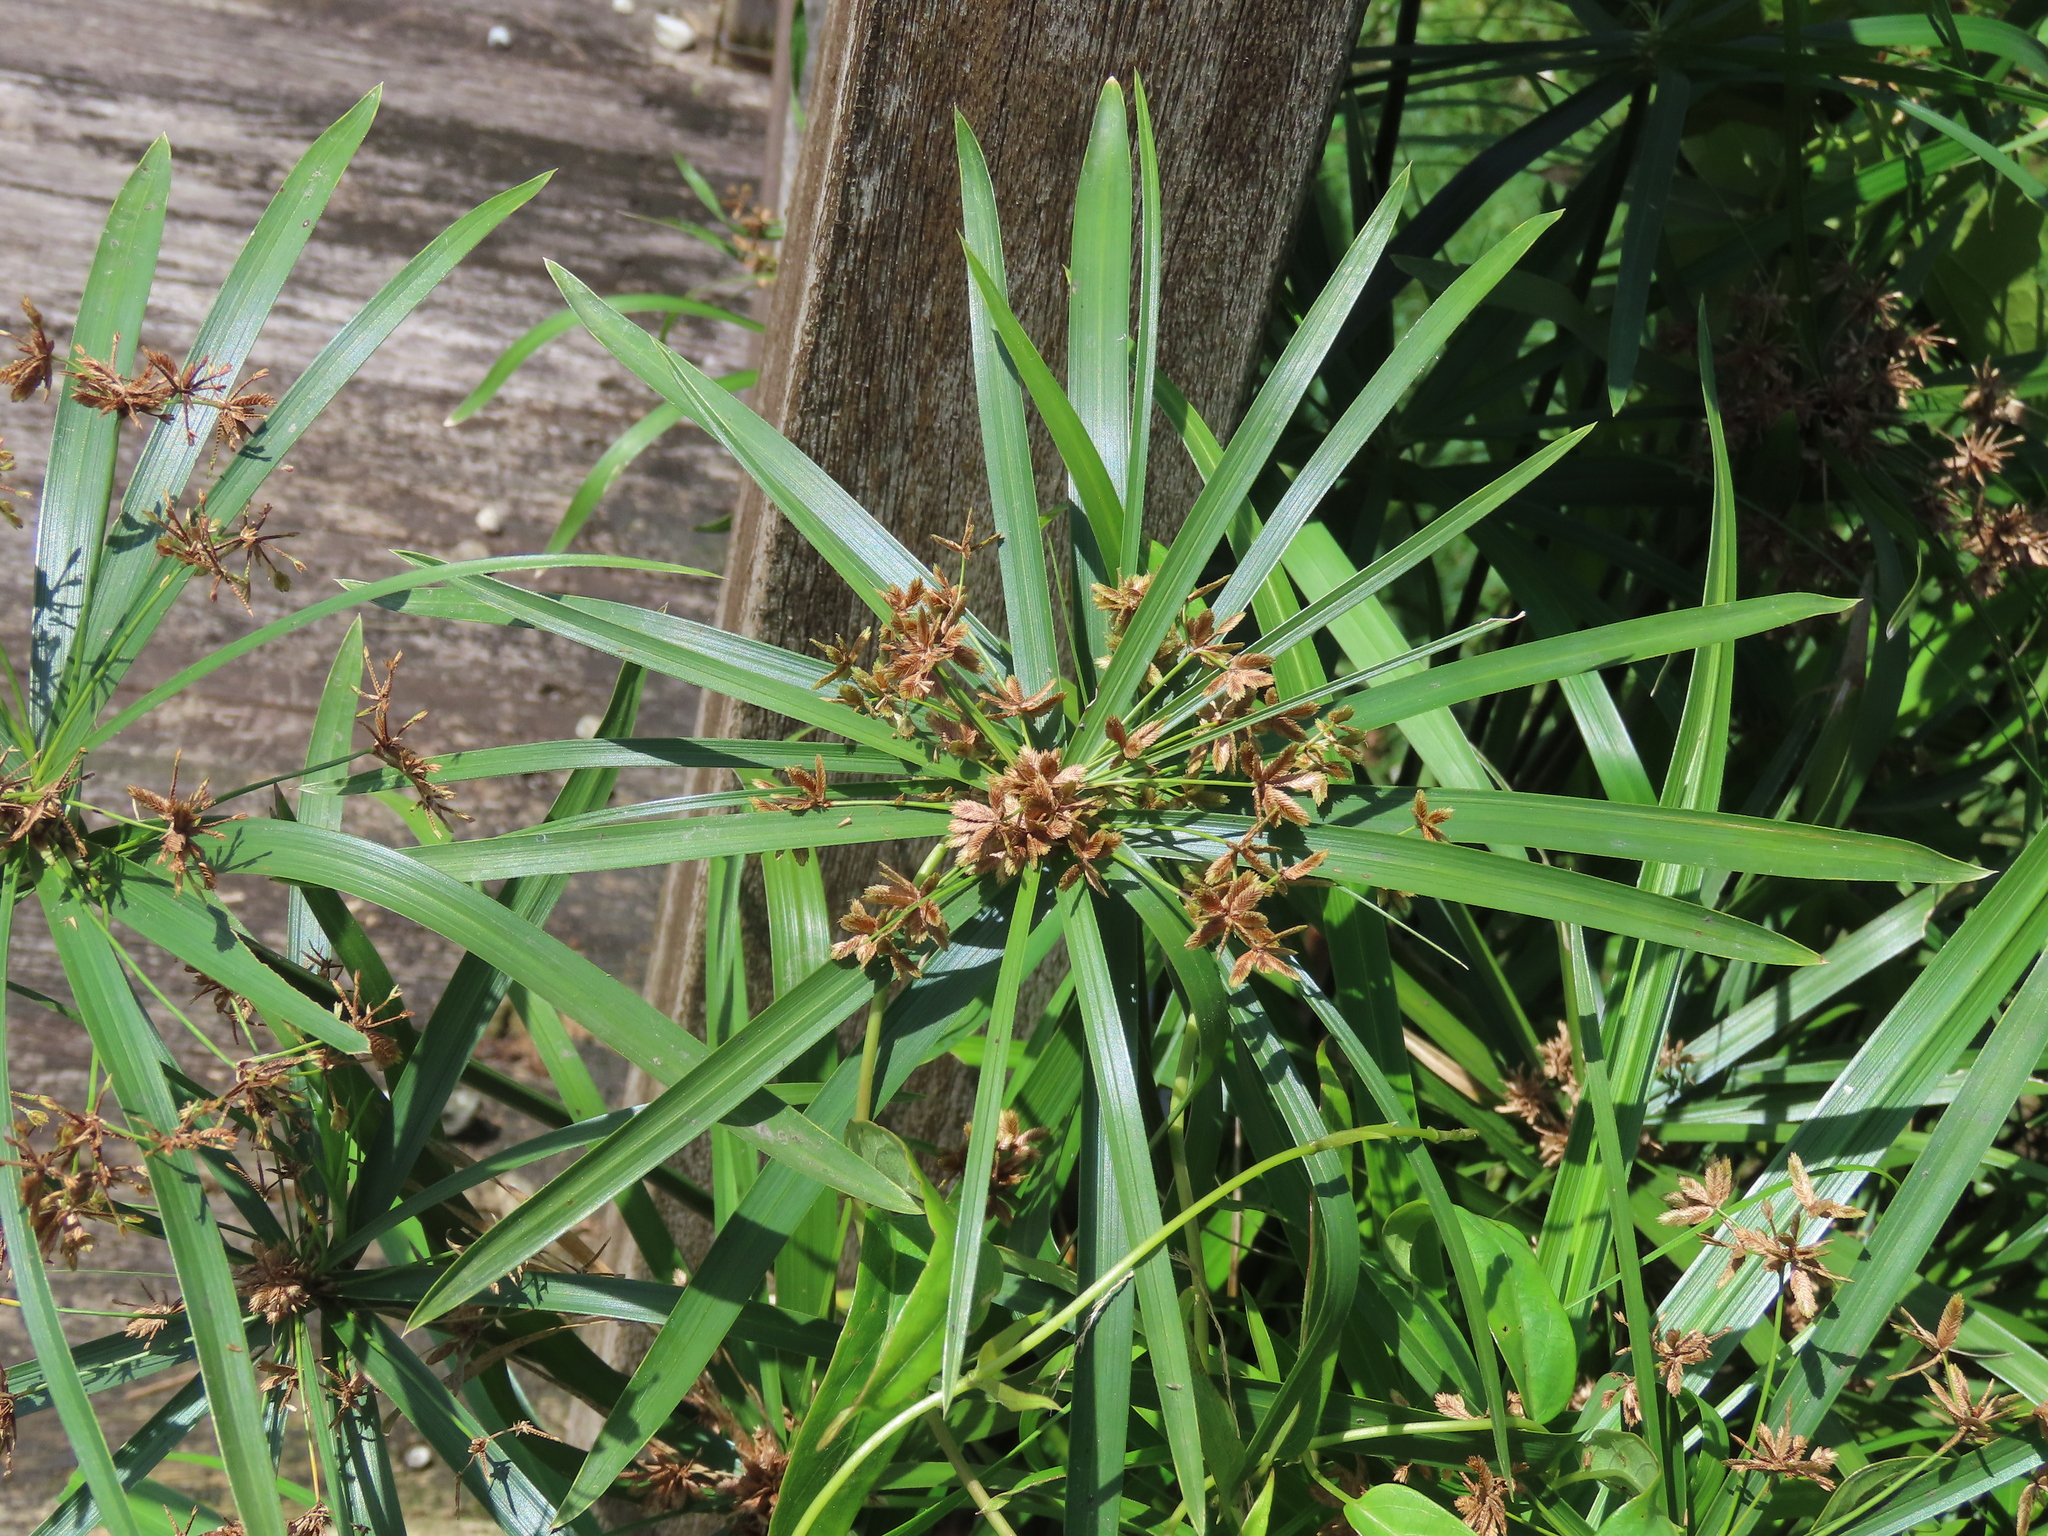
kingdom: Plantae
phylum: Tracheophyta
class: Liliopsida
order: Poales
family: Cyperaceae
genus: Cyperus
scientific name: Cyperus alternifolius
